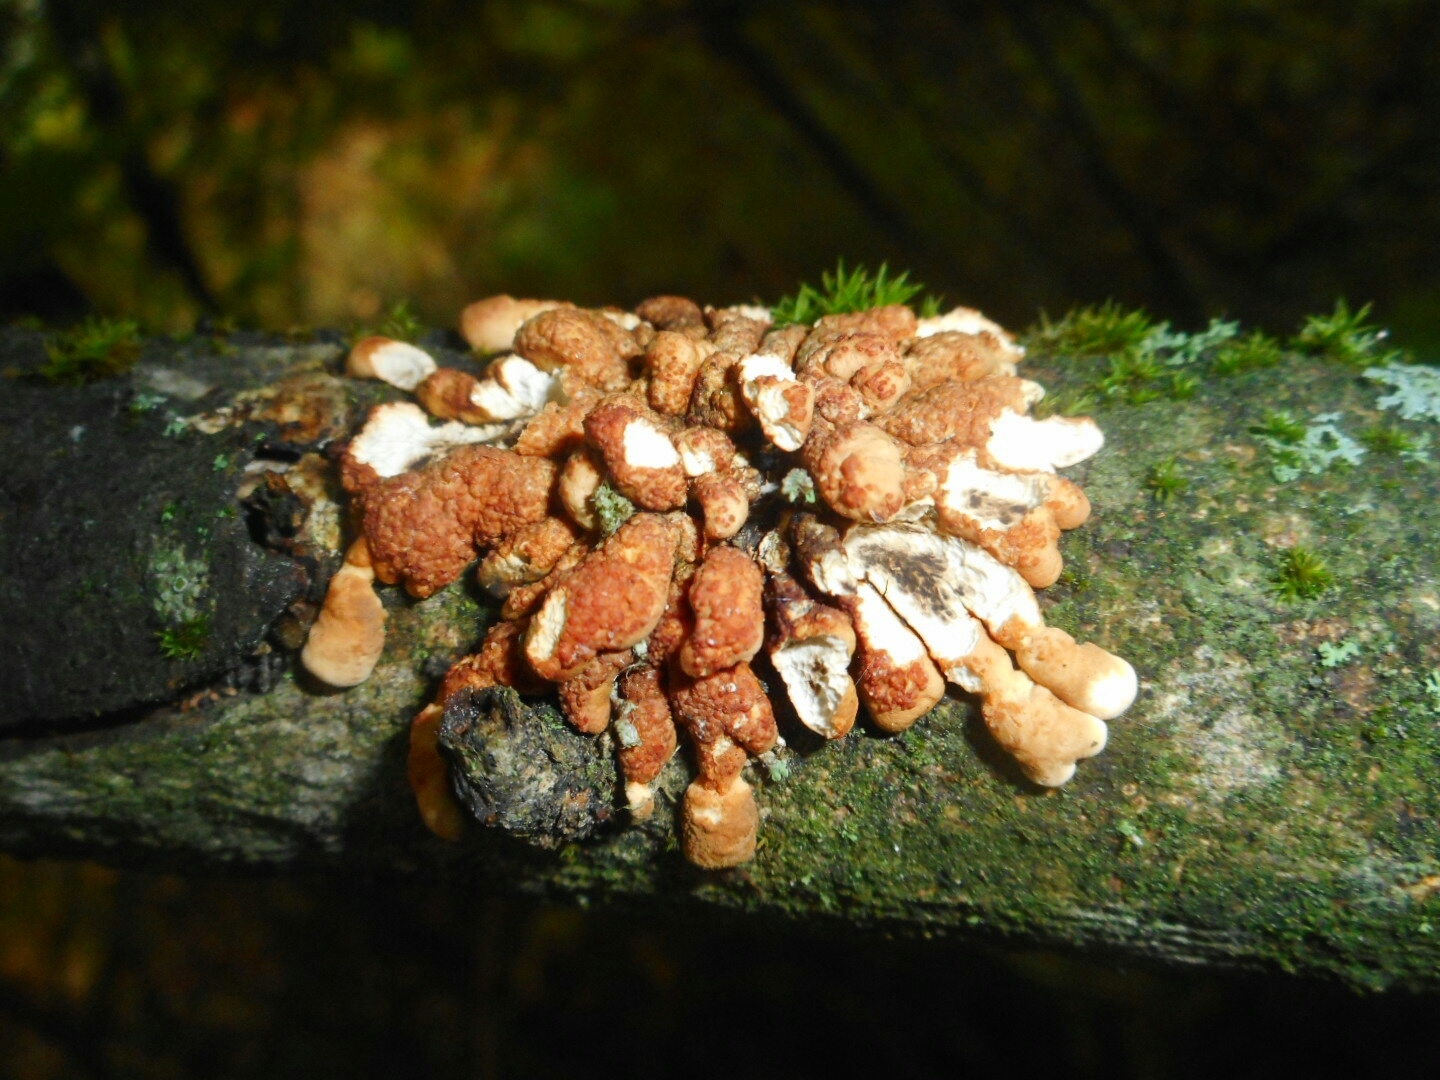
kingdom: Fungi
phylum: Ascomycota
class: Sordariomycetes
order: Hypocreales
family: Hypocreaceae
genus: Hypocreopsis
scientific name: Hypocreopsis lichenoides
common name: Willow gloves
